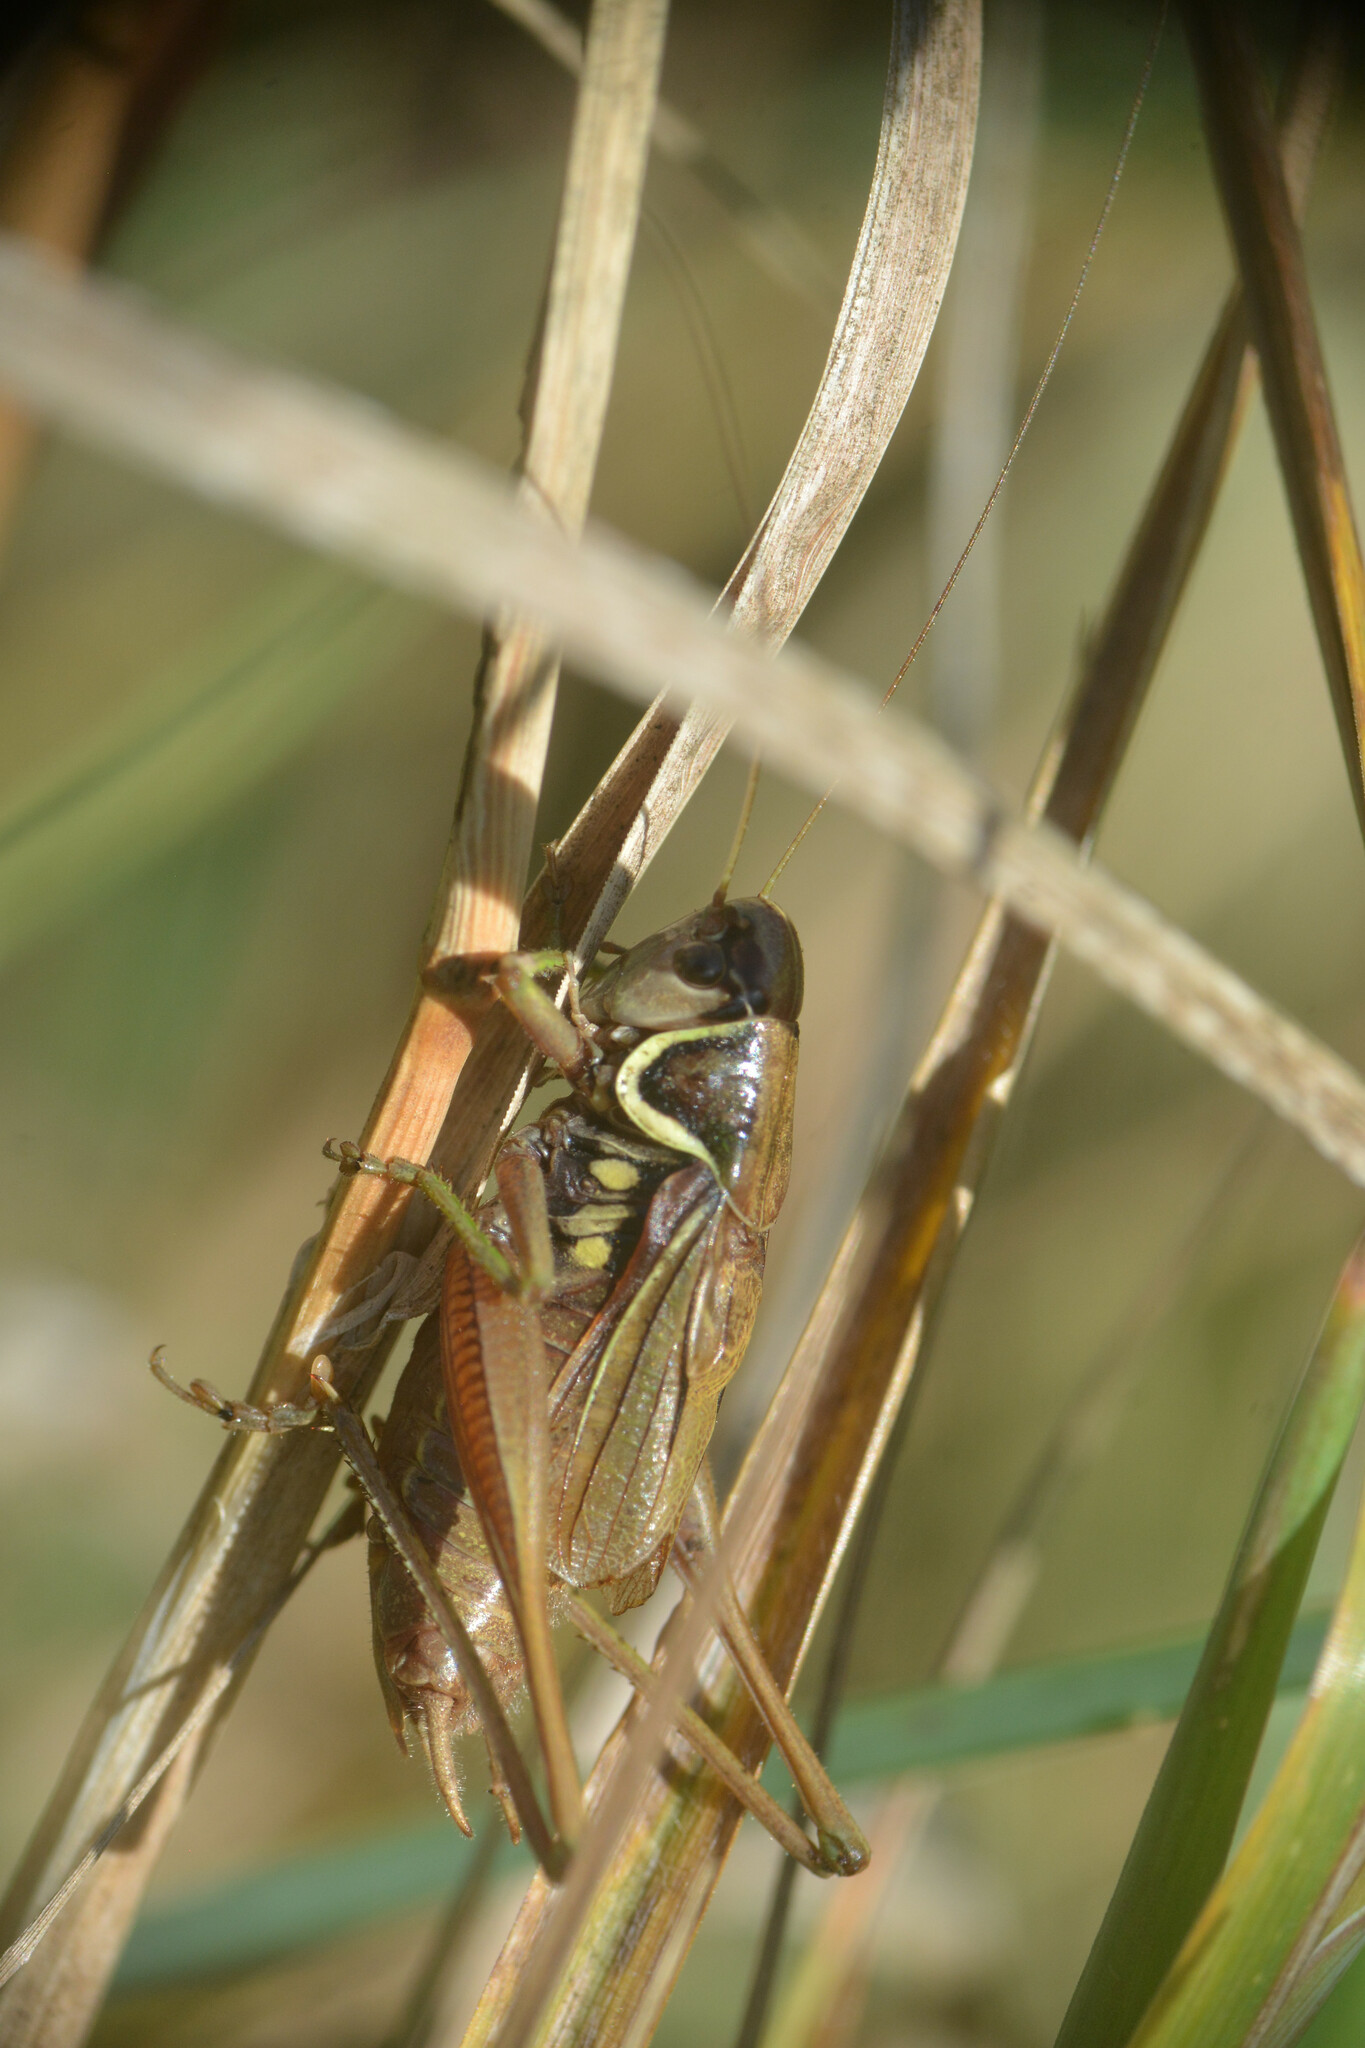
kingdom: Animalia
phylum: Arthropoda
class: Insecta
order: Orthoptera
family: Tettigoniidae
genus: Roeseliana
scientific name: Roeseliana roeselii
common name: Roesel's bush cricket
